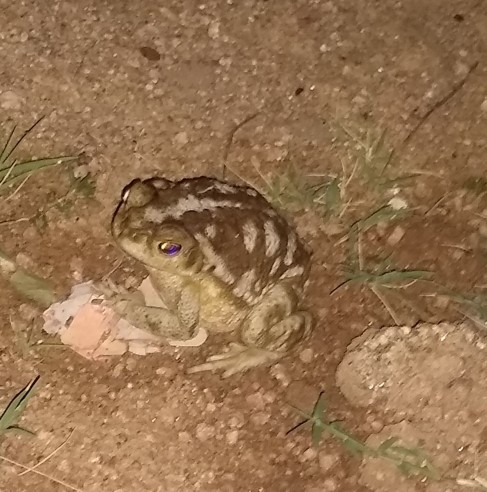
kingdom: Animalia
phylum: Chordata
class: Amphibia
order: Anura
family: Bufonidae
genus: Rhinella
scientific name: Rhinella arenarum
